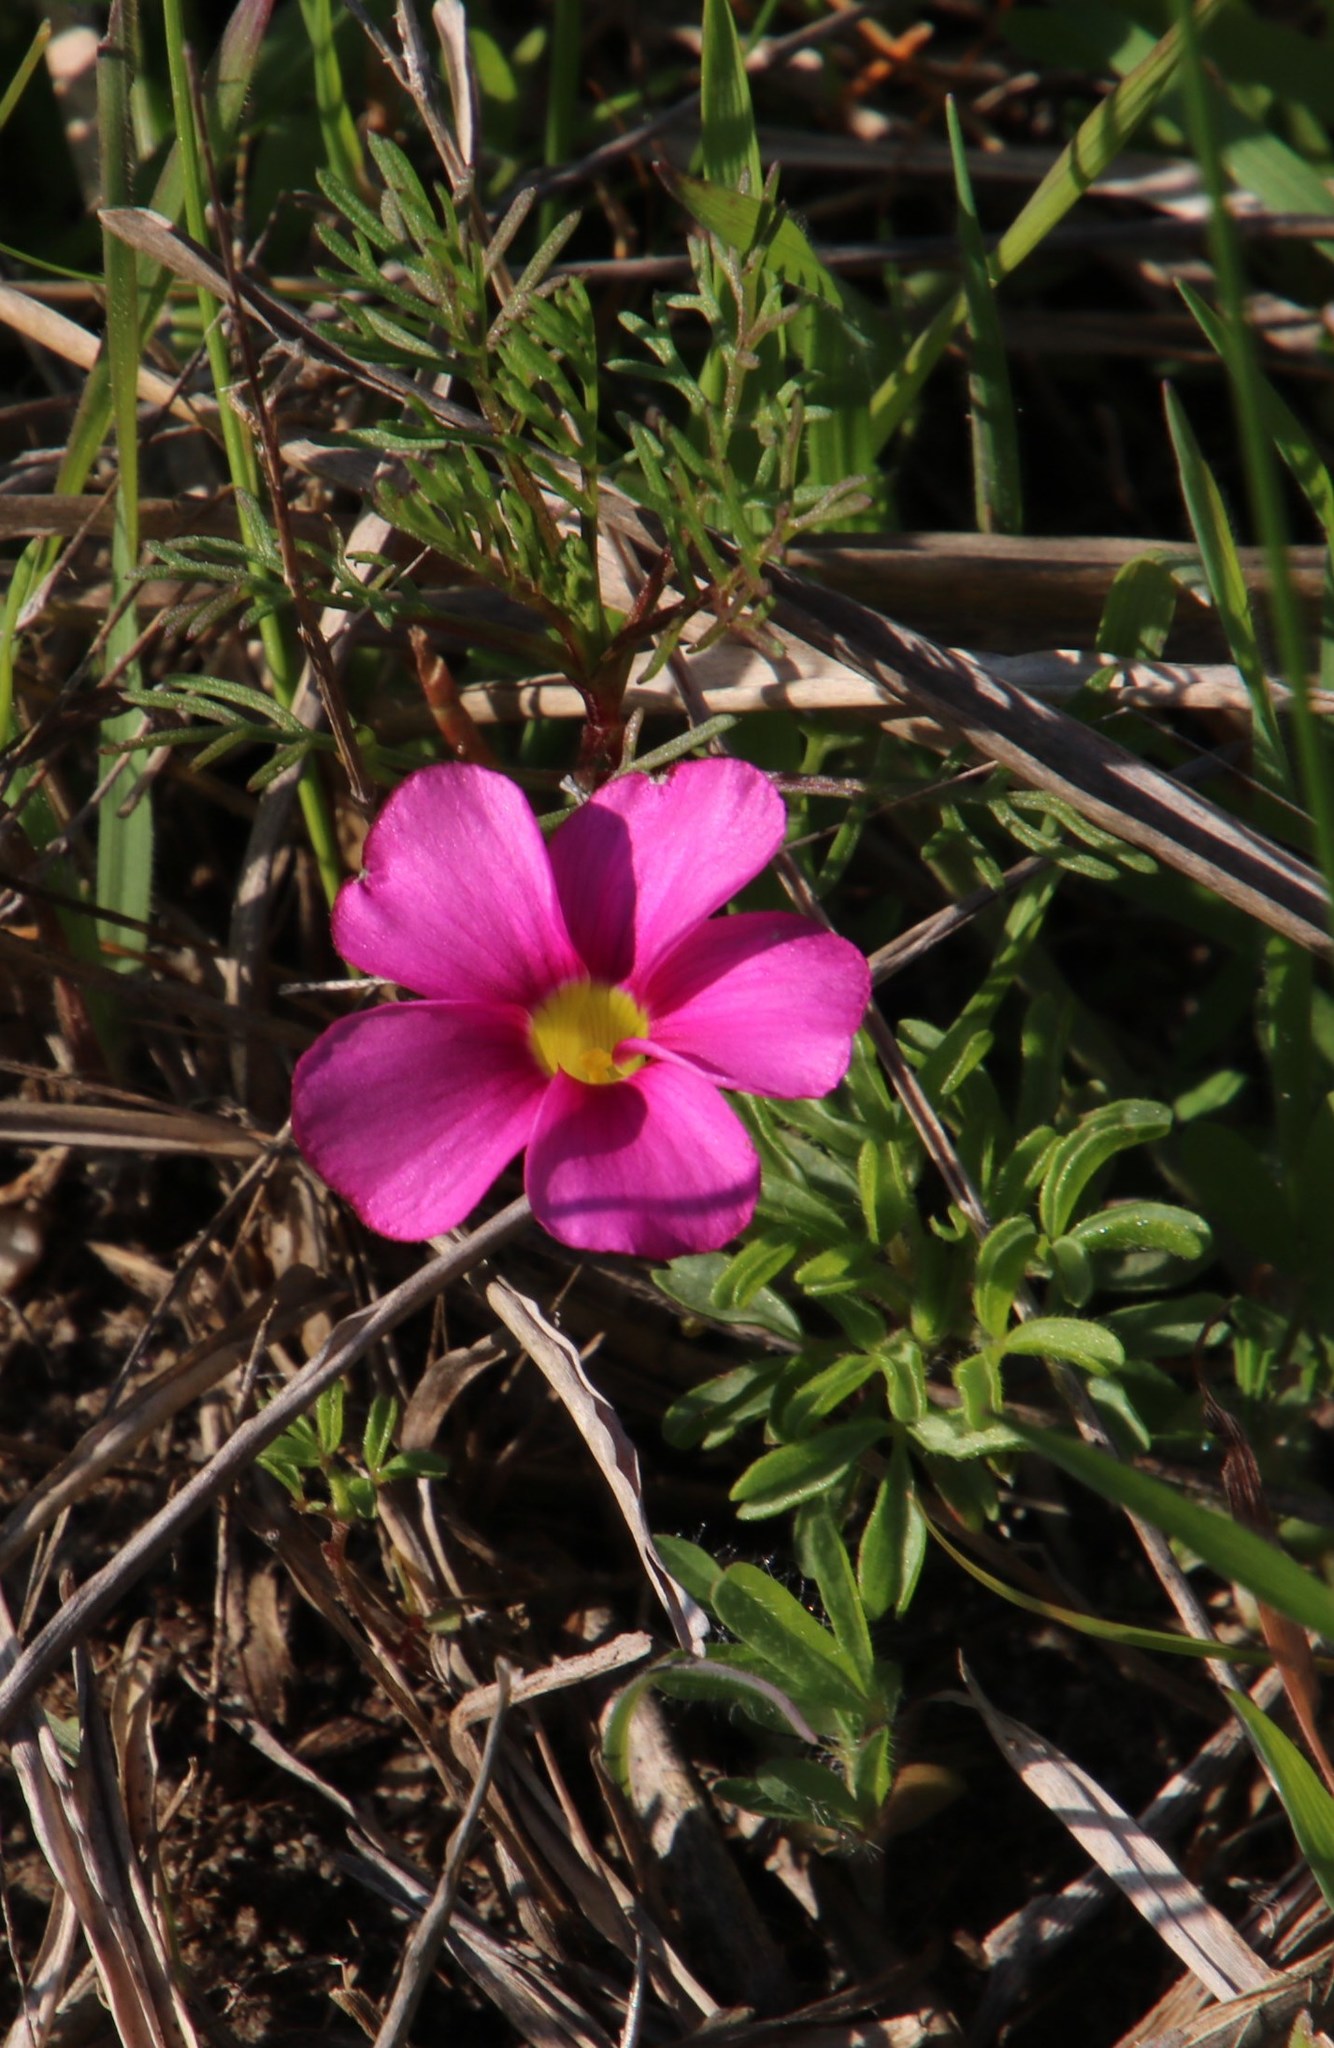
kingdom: Plantae
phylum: Tracheophyta
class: Magnoliopsida
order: Oxalidales
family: Oxalidaceae
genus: Oxalis
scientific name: Oxalis glabra
